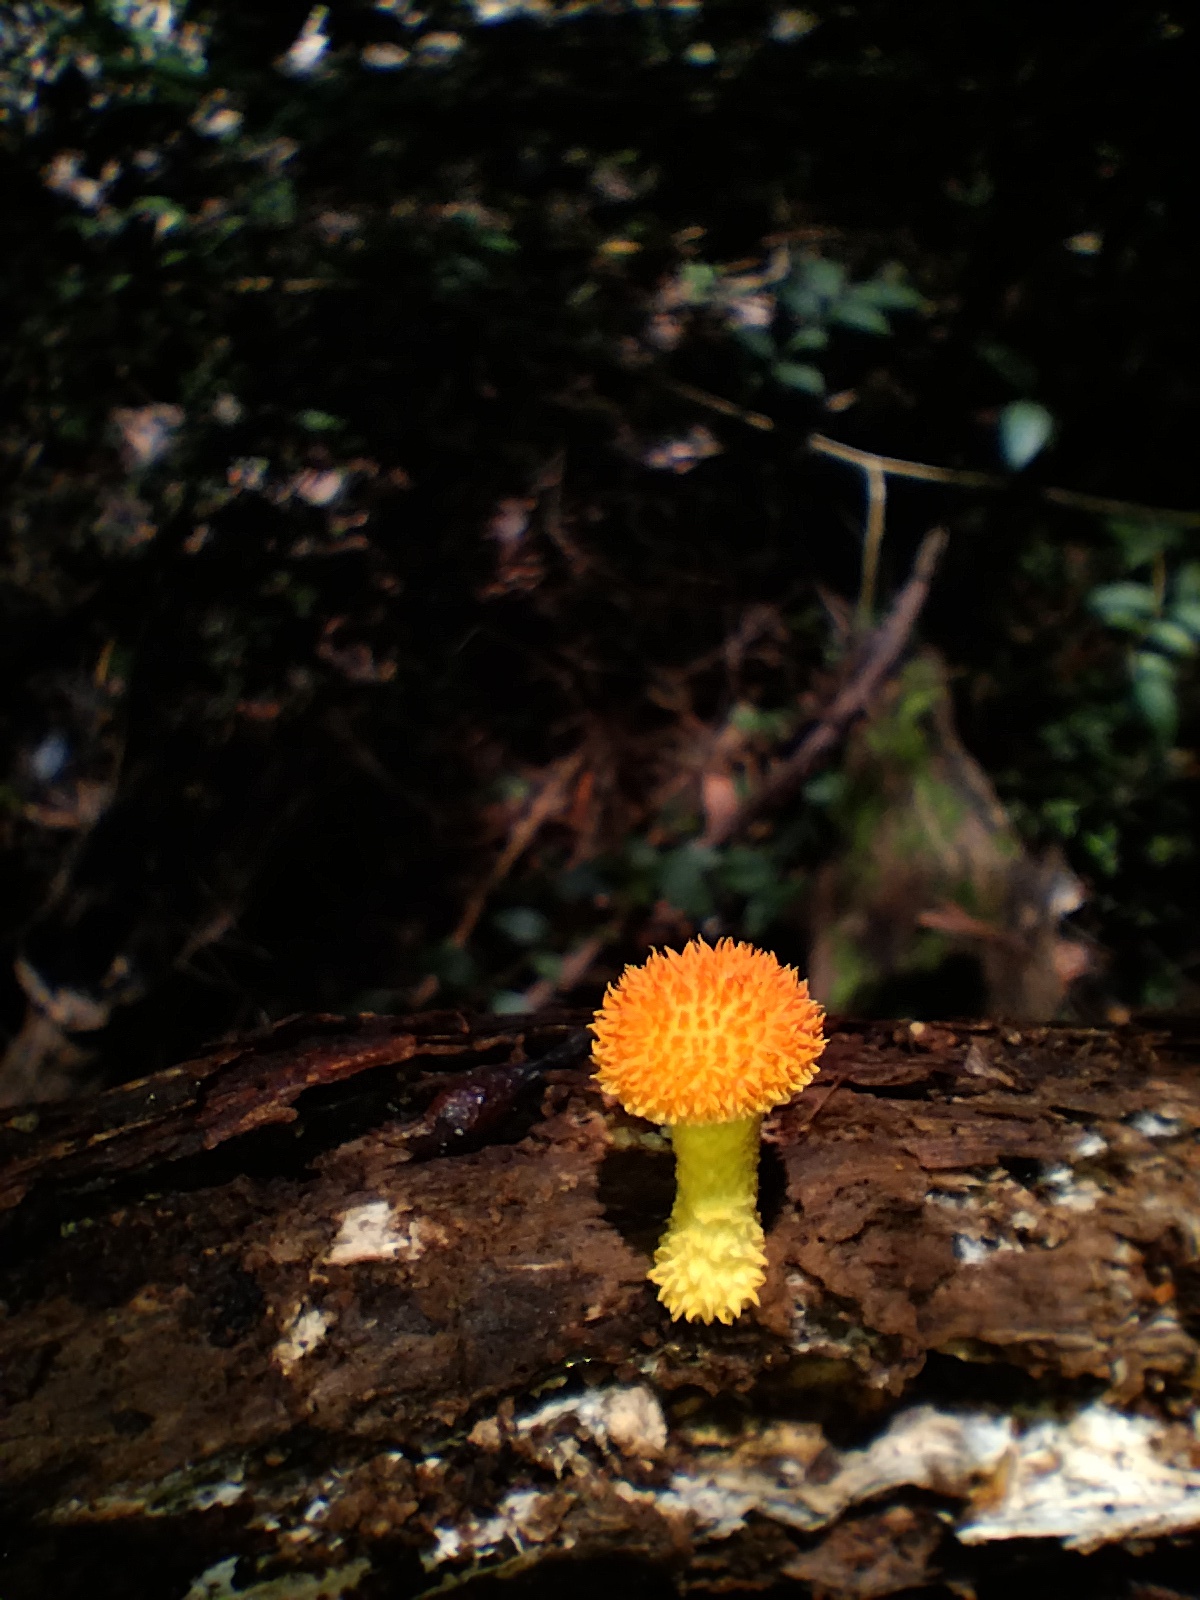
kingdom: Fungi
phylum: Basidiomycota
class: Agaricomycetes
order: Agaricales
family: Physalacriaceae
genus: Cyptotrama
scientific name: Cyptotrama asprata
